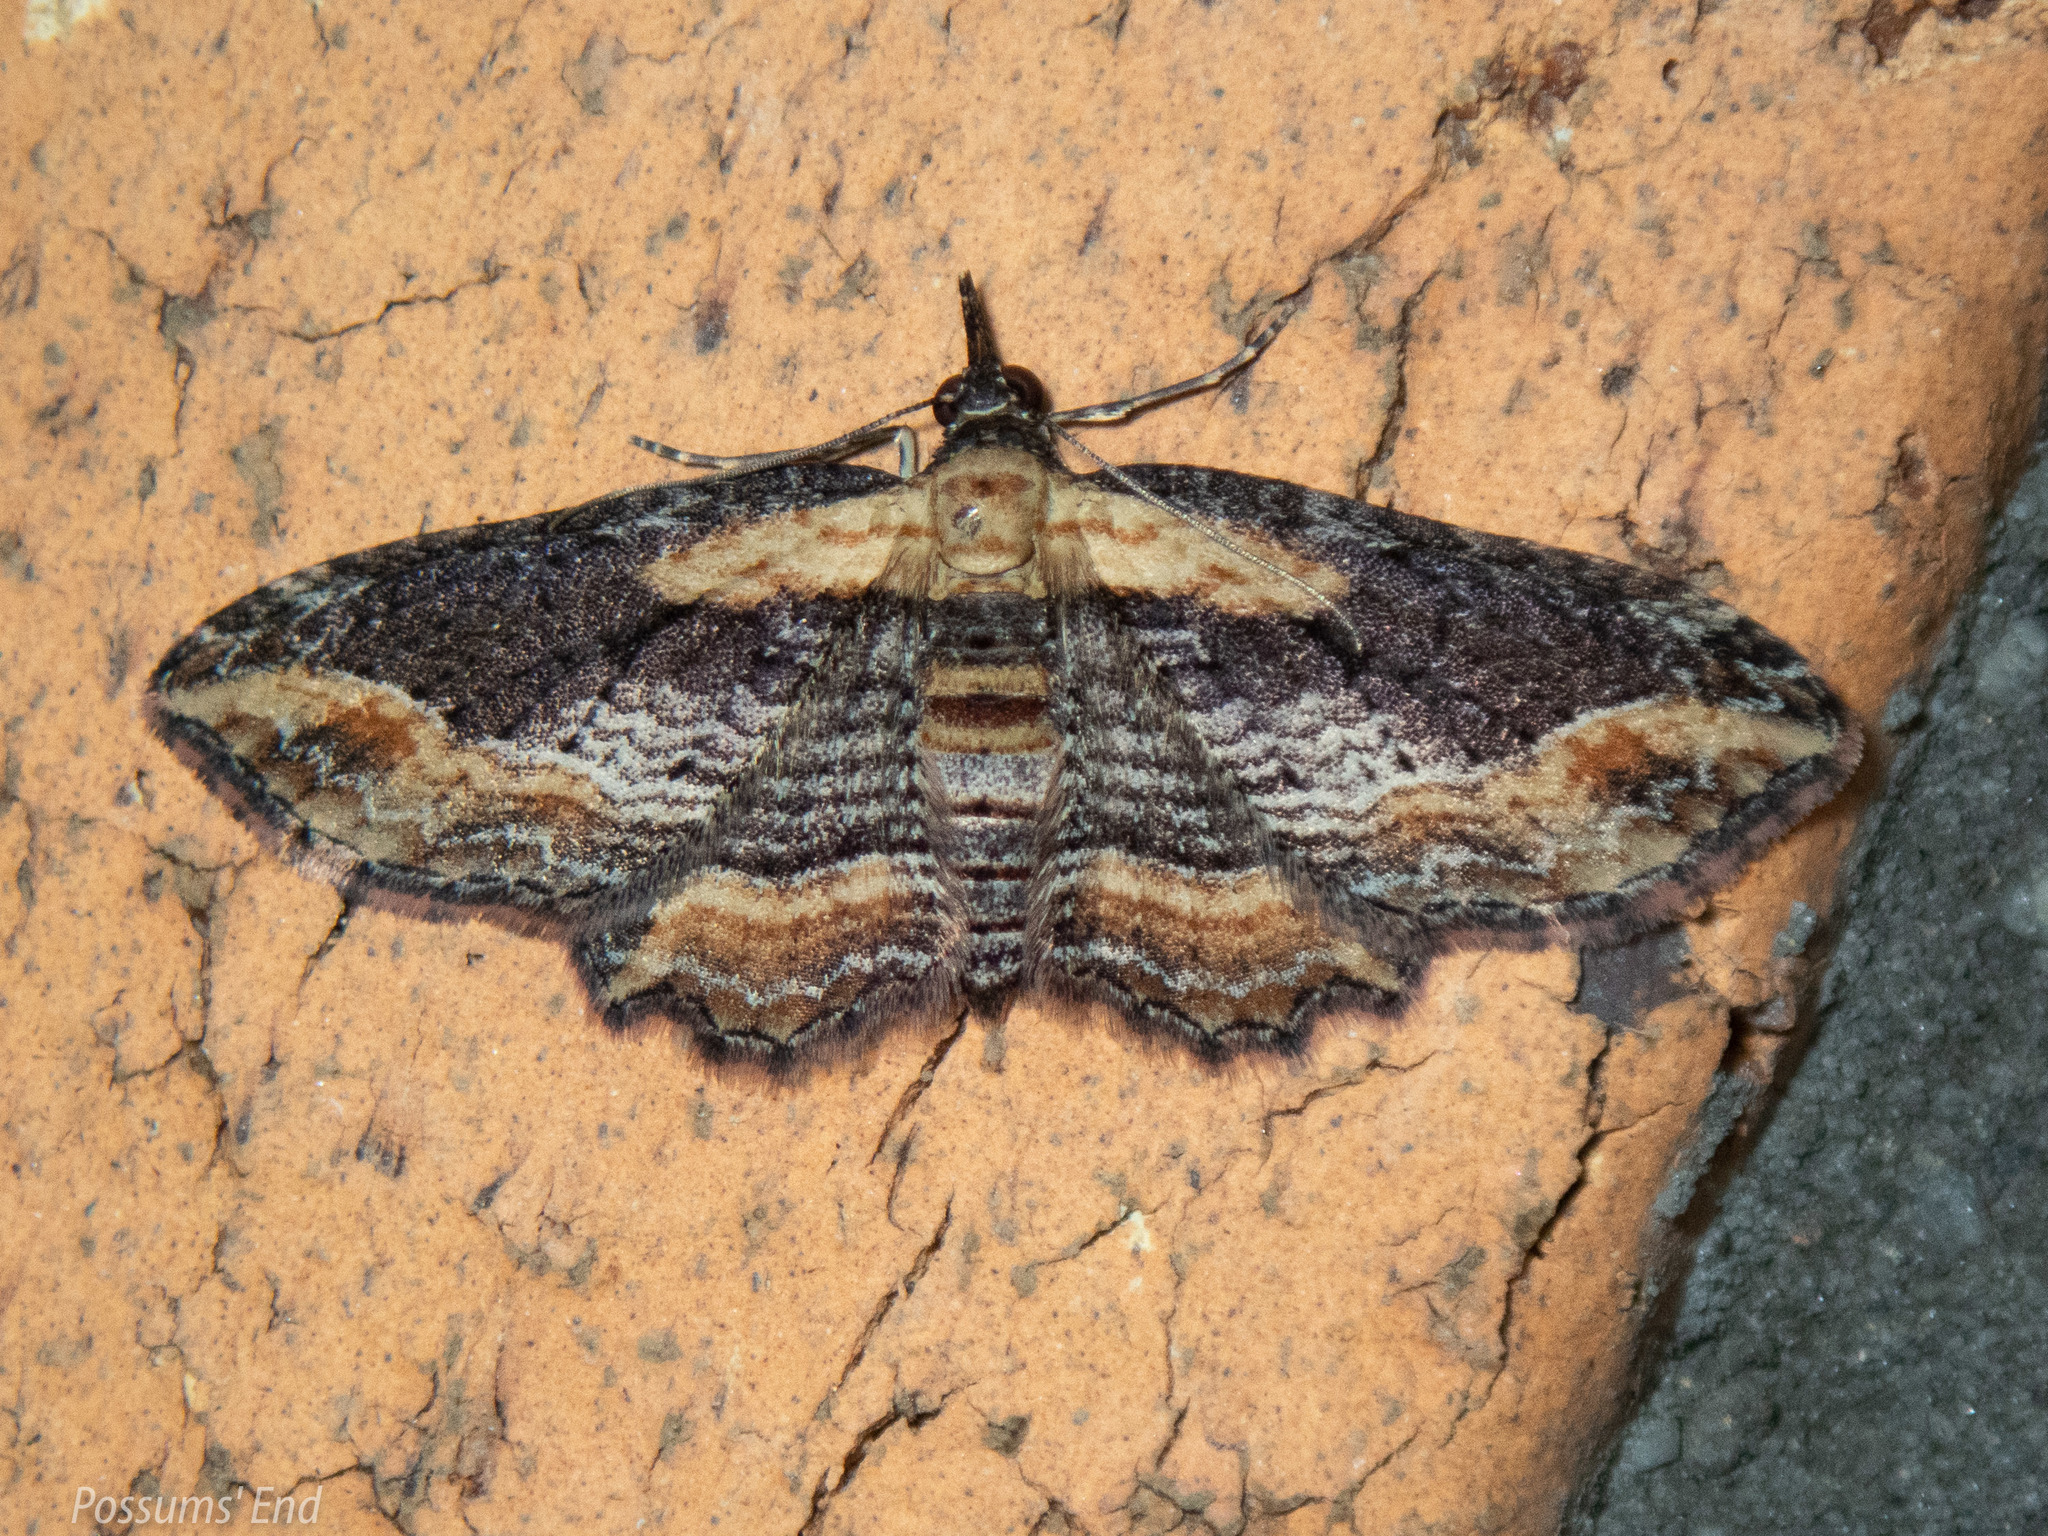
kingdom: Animalia
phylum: Arthropoda
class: Insecta
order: Lepidoptera
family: Geometridae
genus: Chloroclystis
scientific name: Chloroclystis filata
